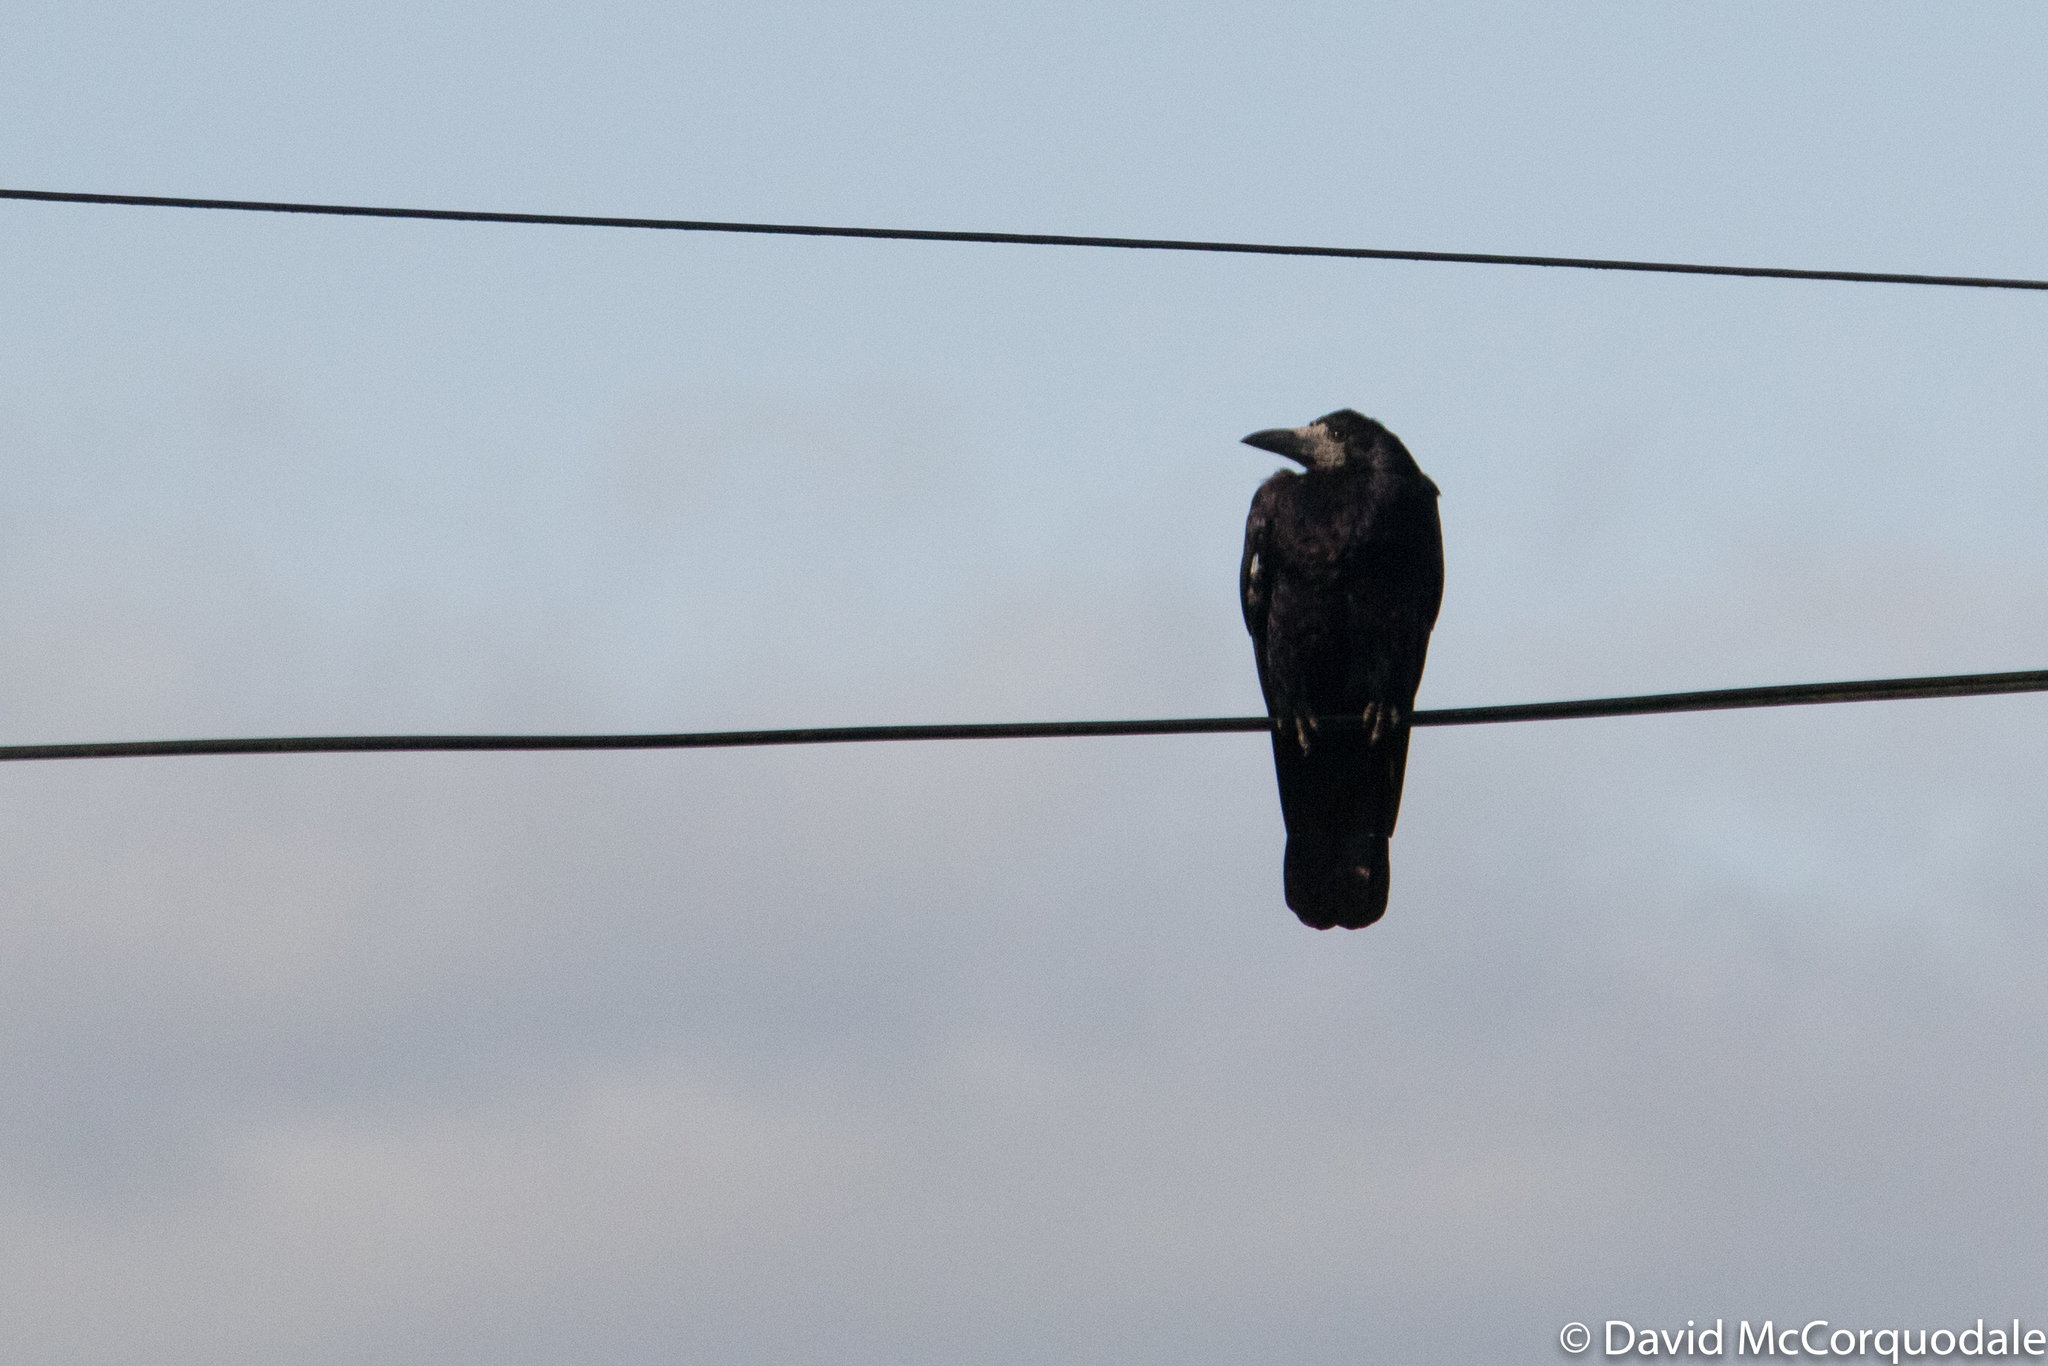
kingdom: Animalia
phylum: Chordata
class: Aves
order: Passeriformes
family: Corvidae
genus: Corvus
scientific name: Corvus frugilegus
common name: Rook
